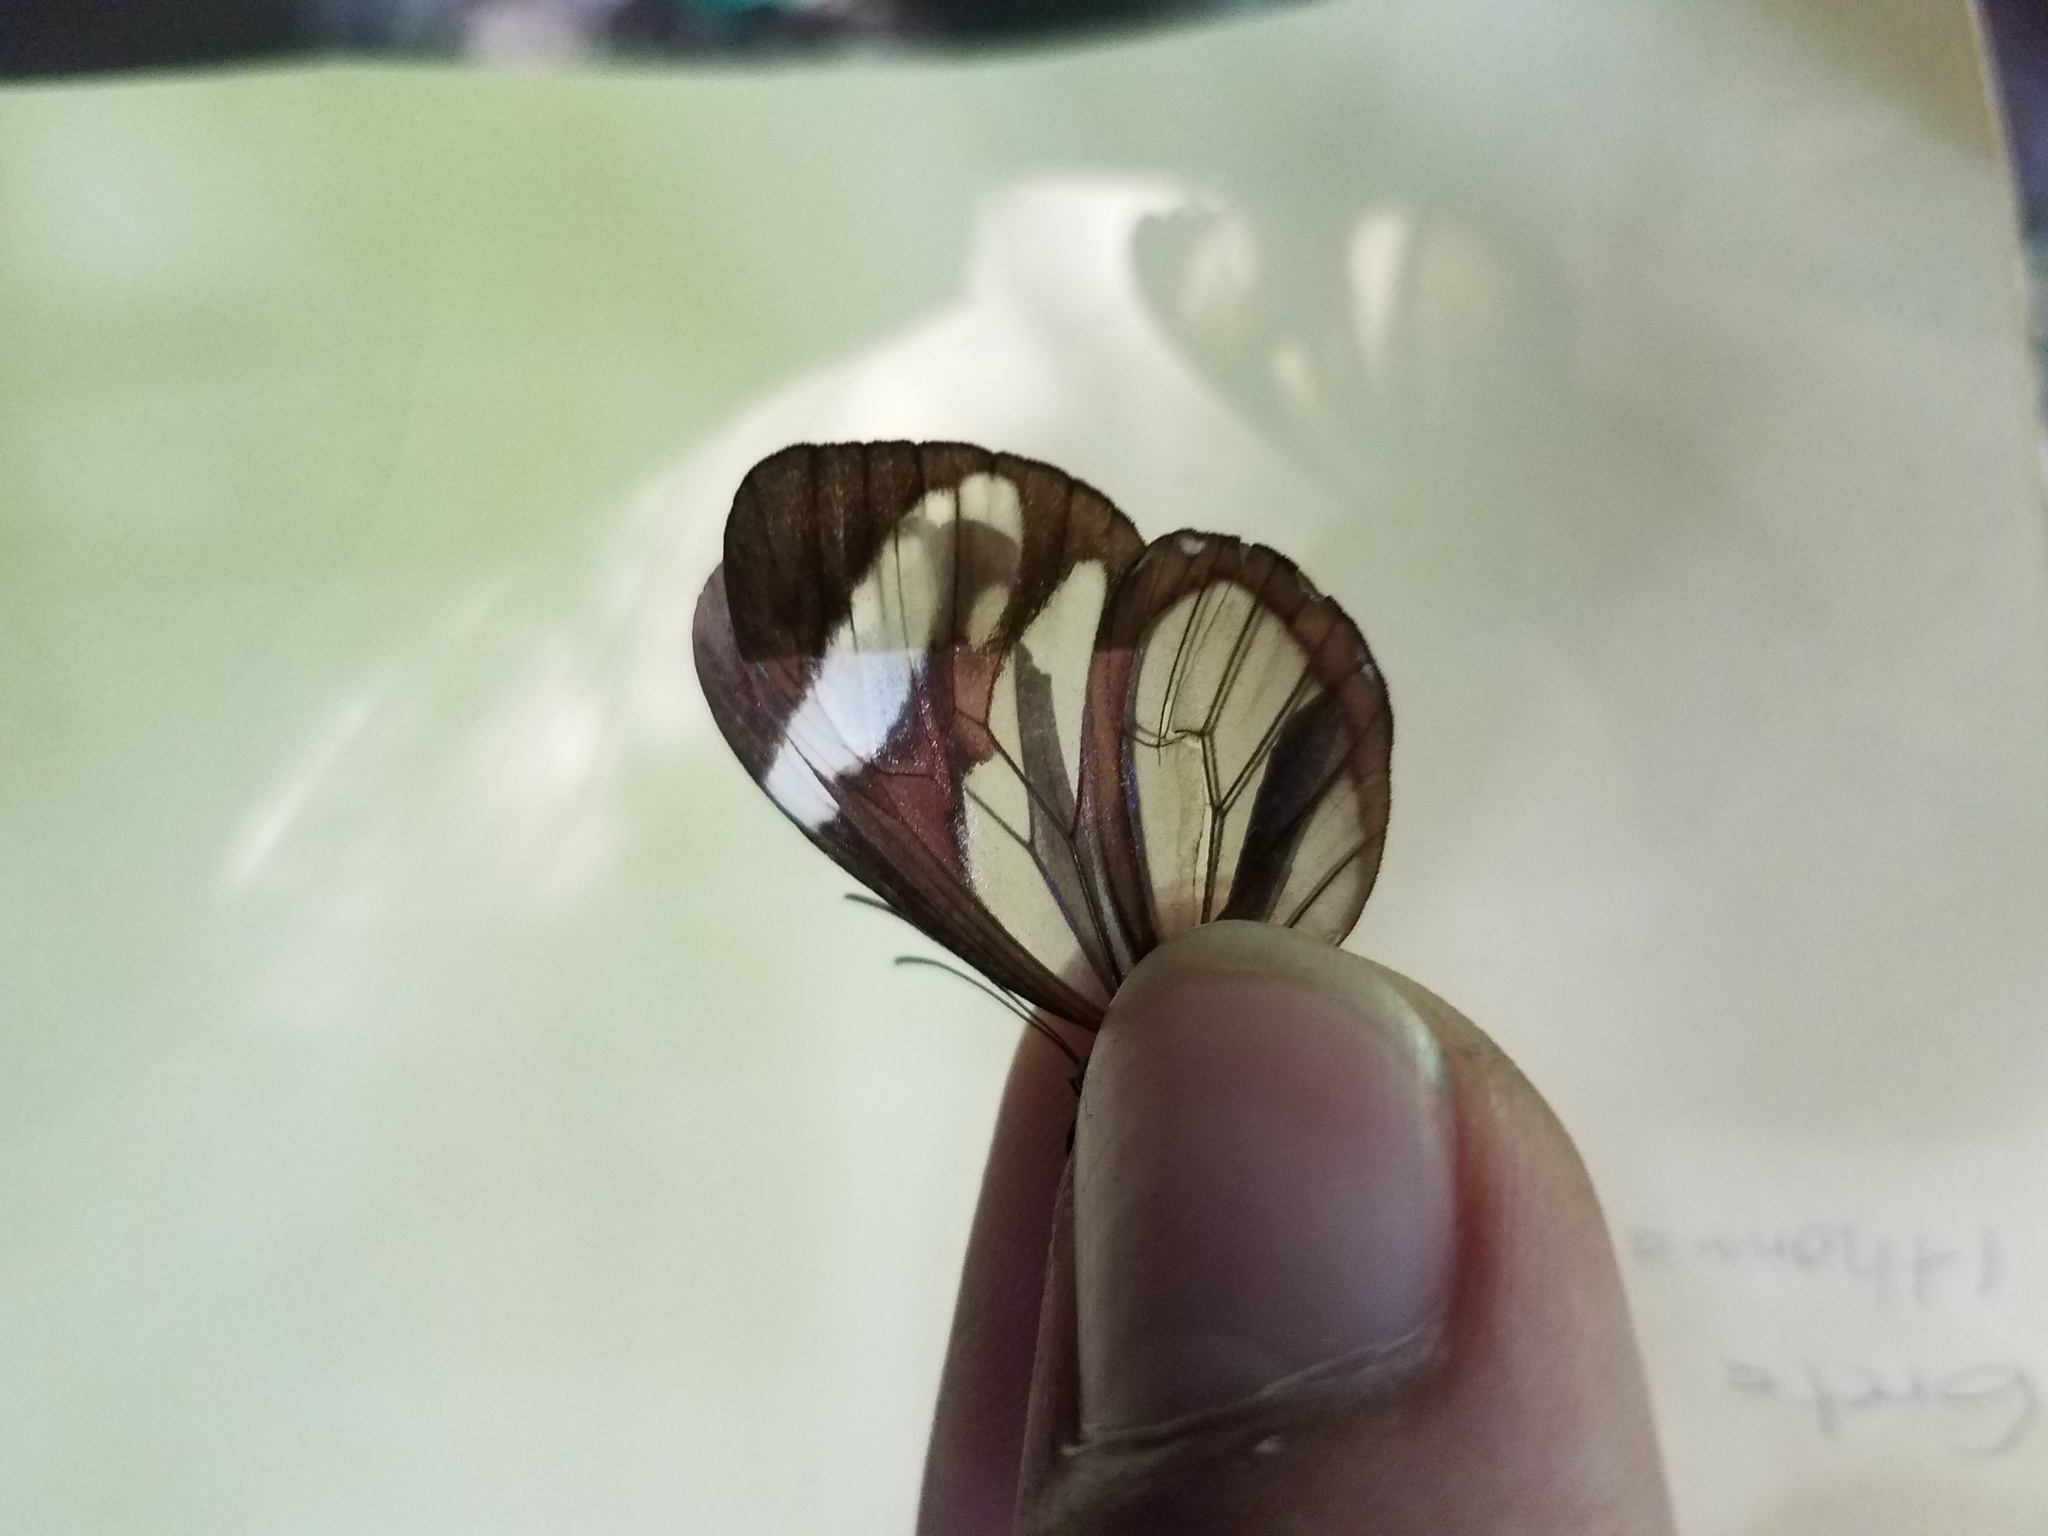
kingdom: Animalia
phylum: Arthropoda
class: Insecta
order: Lepidoptera
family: Nymphalidae
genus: Ithomia
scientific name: Ithomia patilla
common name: Patilla clearwing
